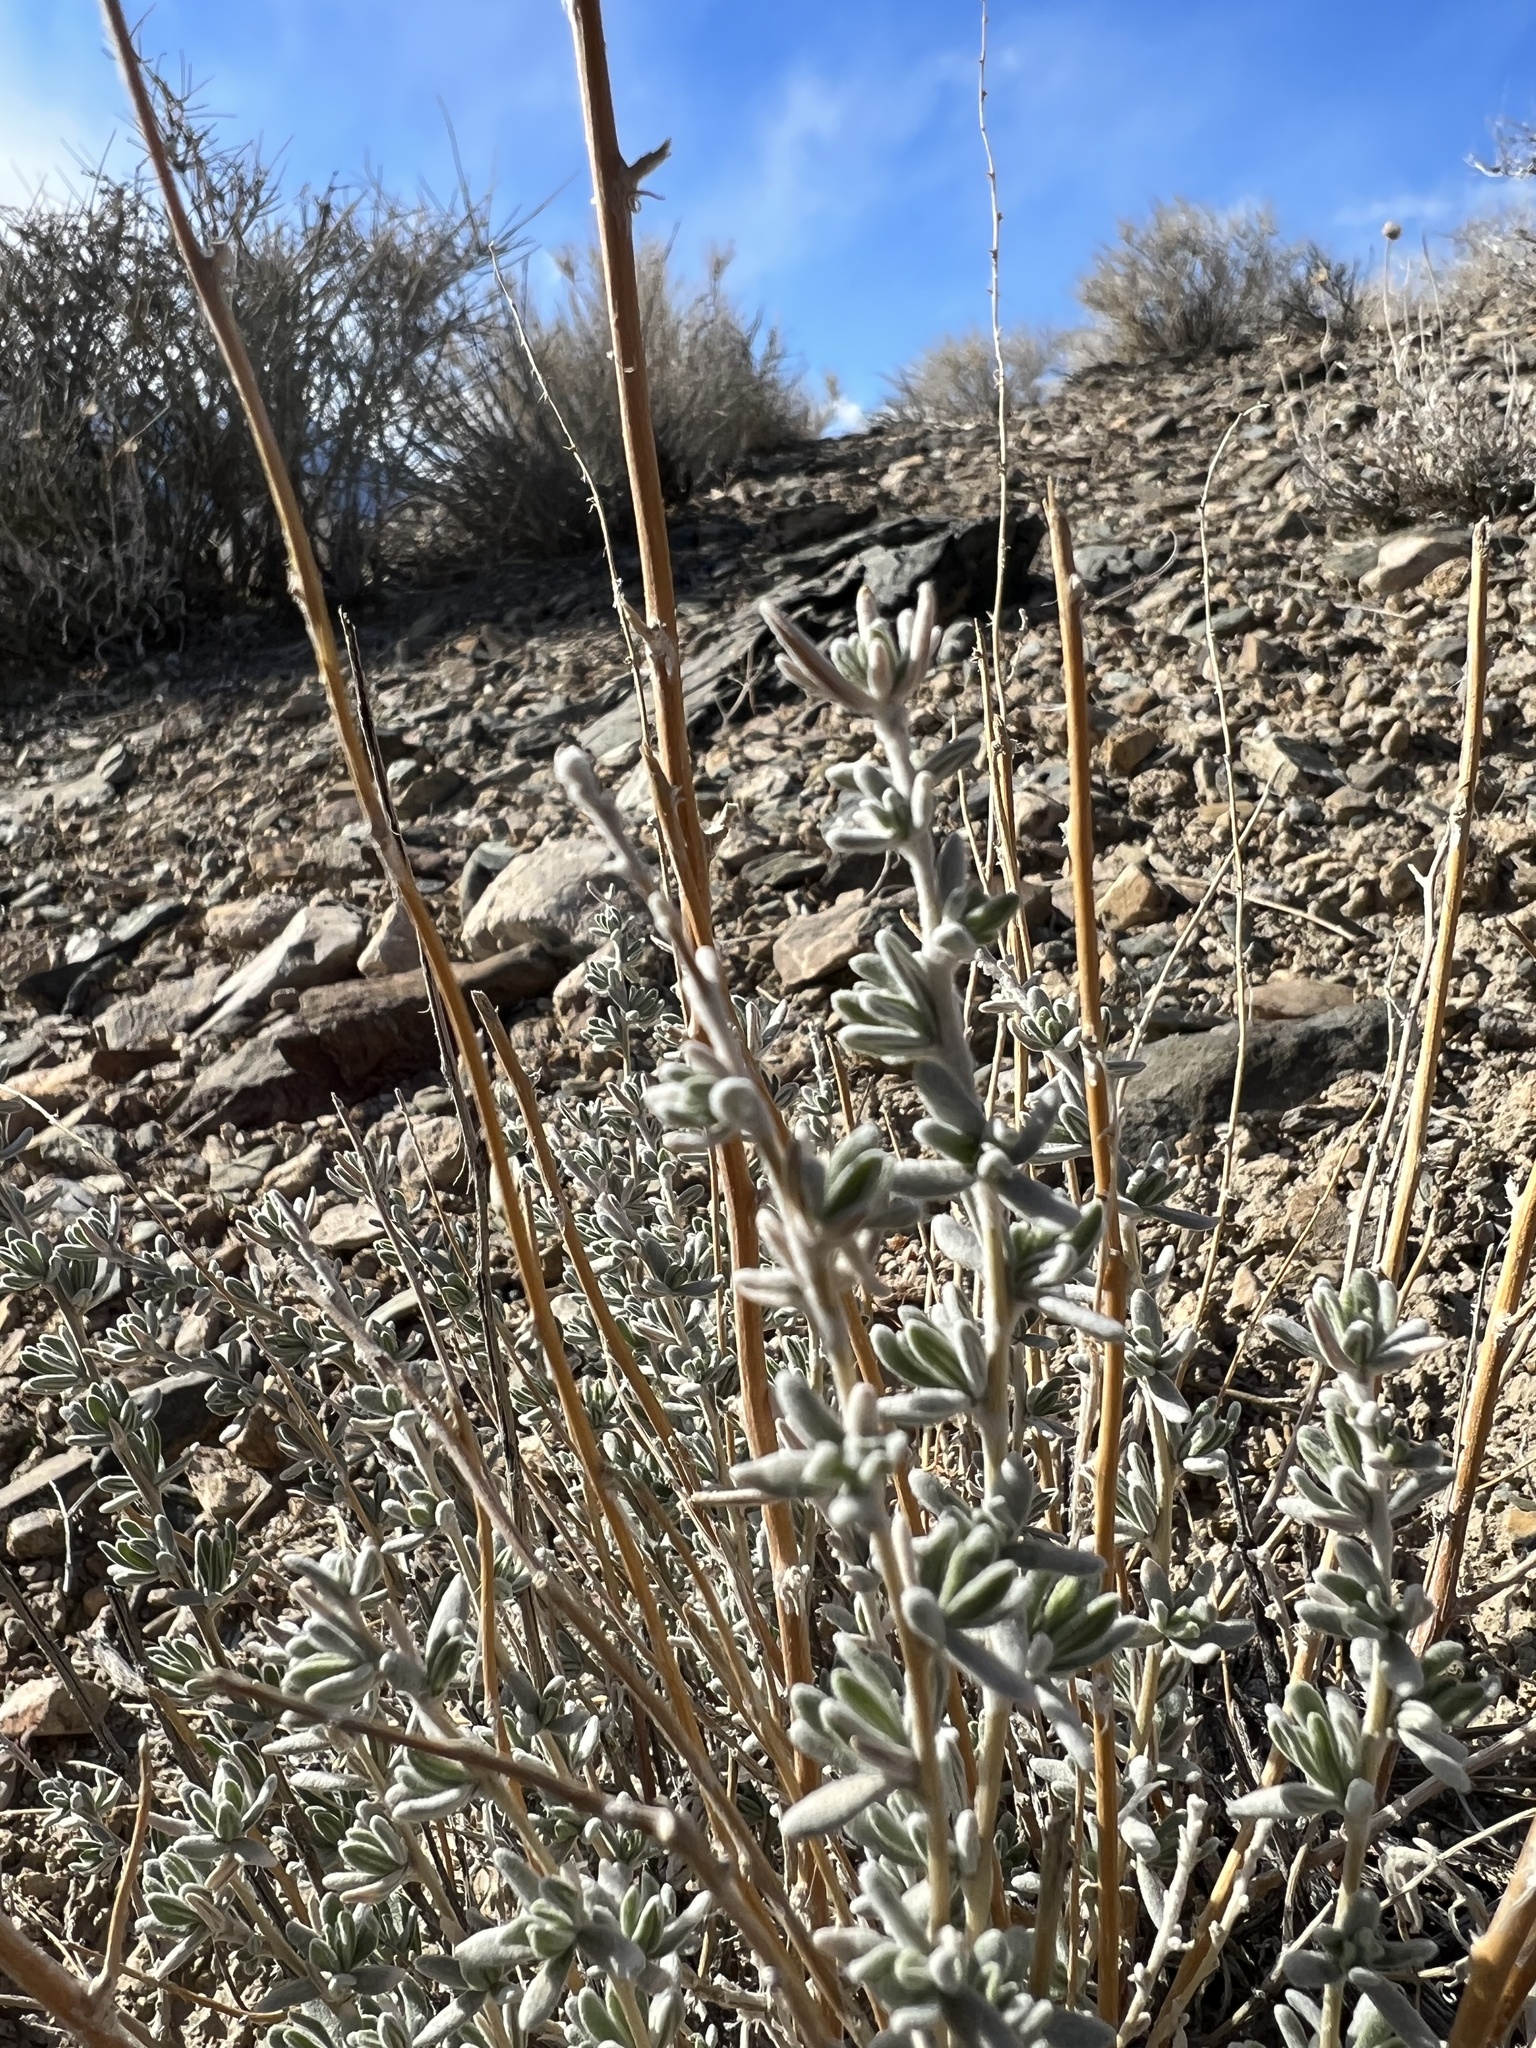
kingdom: Plantae
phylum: Tracheophyta
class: Magnoliopsida
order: Caryophyllales
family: Amaranthaceae
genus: Krascheninnikovia
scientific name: Krascheninnikovia lanata
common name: Winterfat
